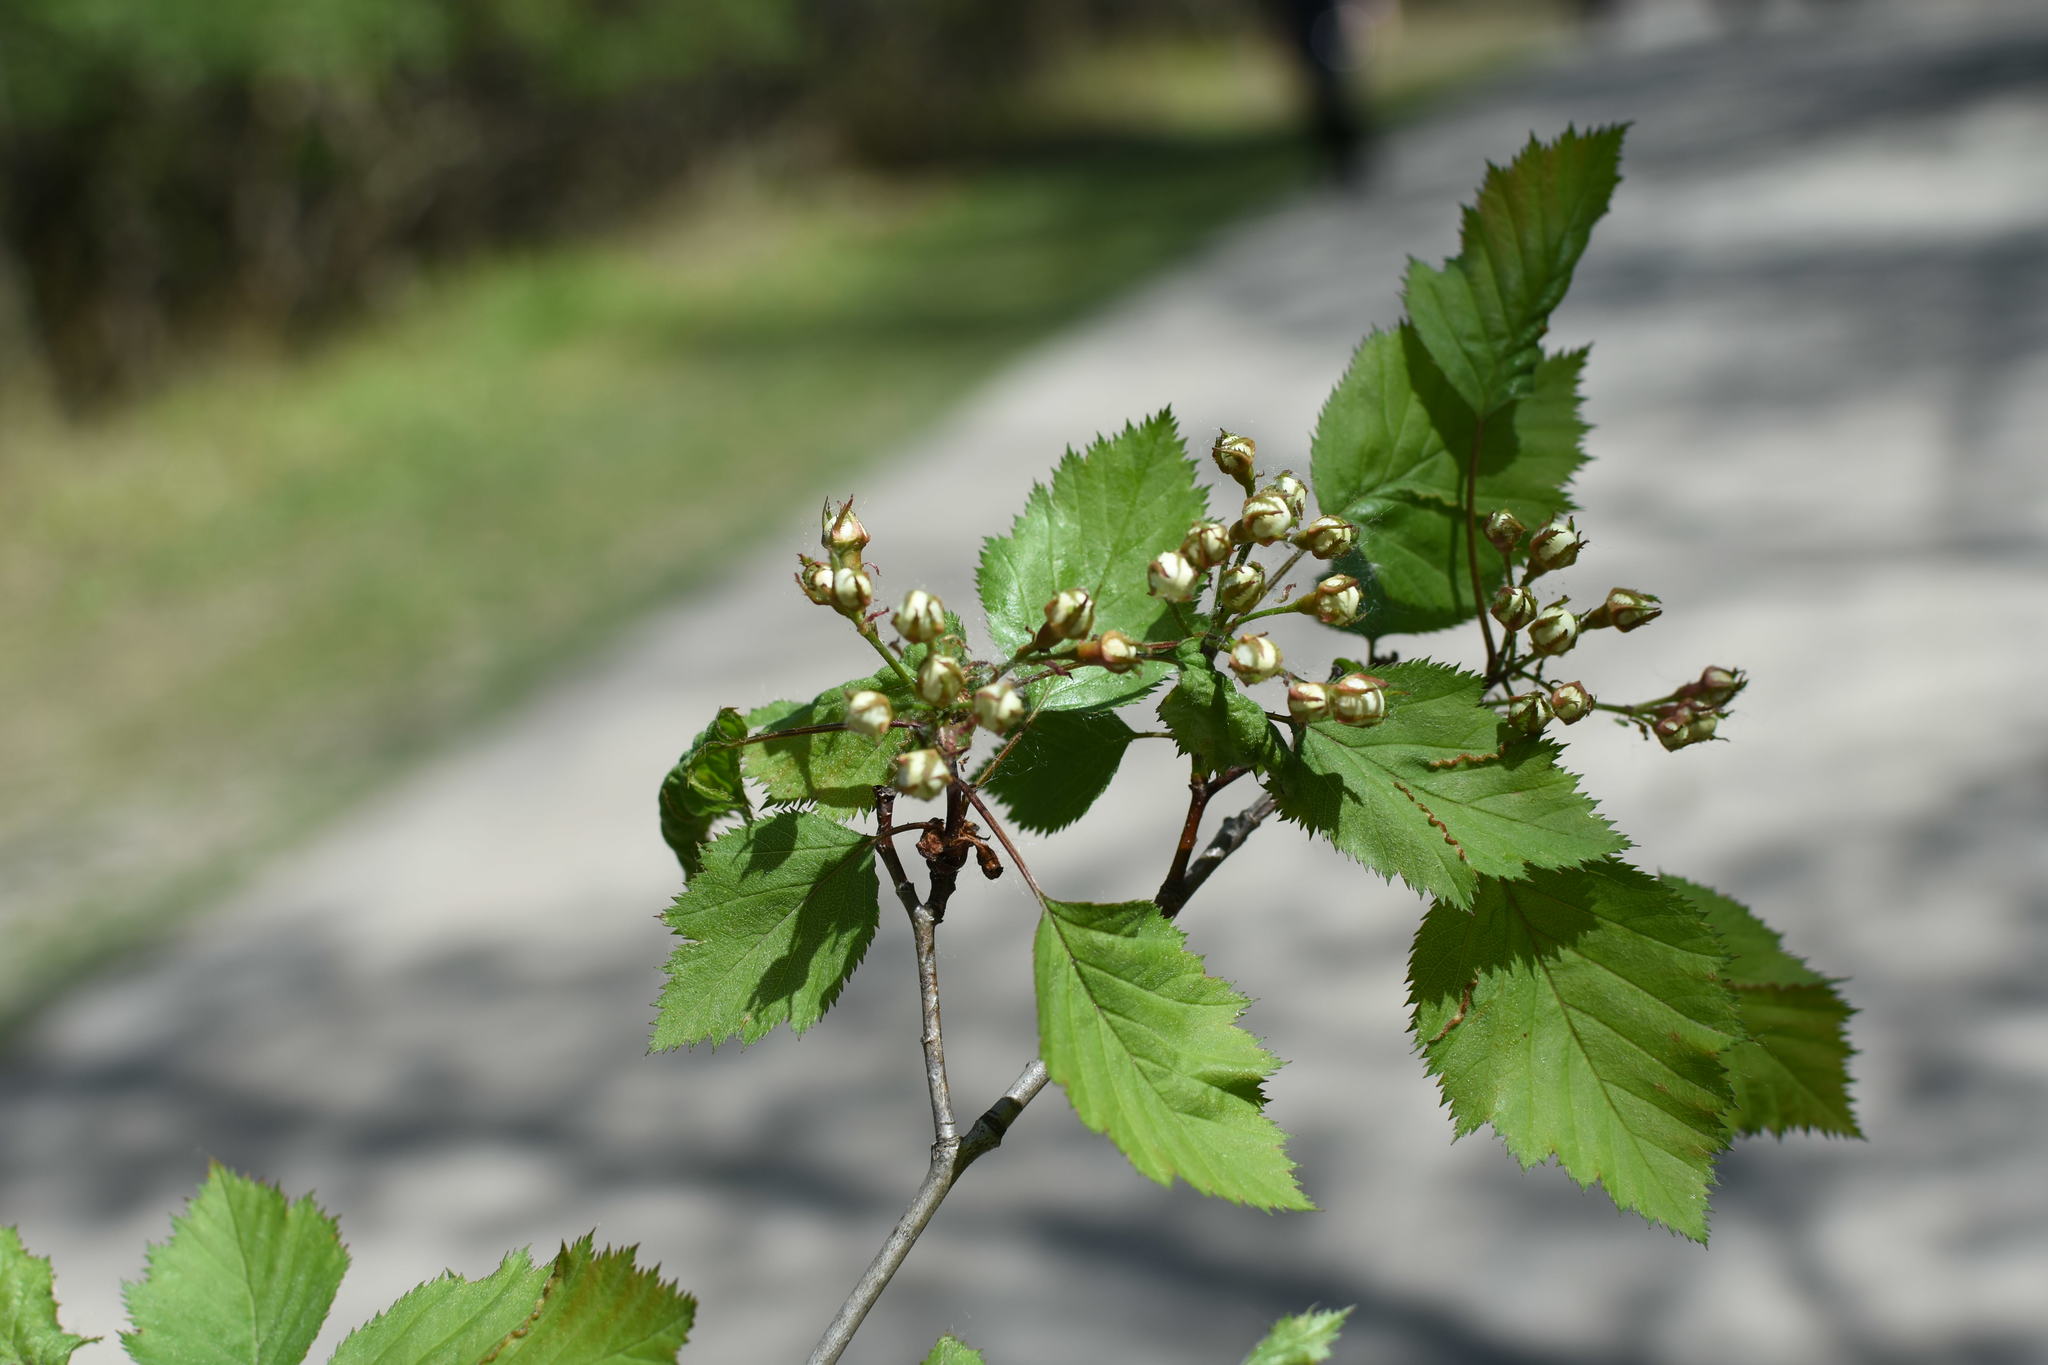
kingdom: Plantae
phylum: Tracheophyta
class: Magnoliopsida
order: Rosales
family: Rosaceae
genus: Crataegus
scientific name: Crataegus holmesiana
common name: Holmes' hawthorn
